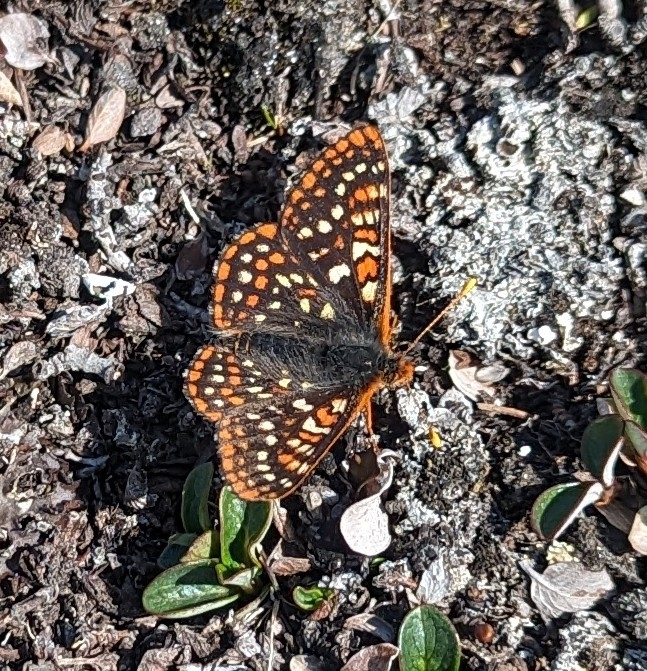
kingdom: Animalia
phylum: Arthropoda
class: Insecta
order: Lepidoptera
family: Nymphalidae
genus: Occidryas
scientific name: Occidryas anicia
